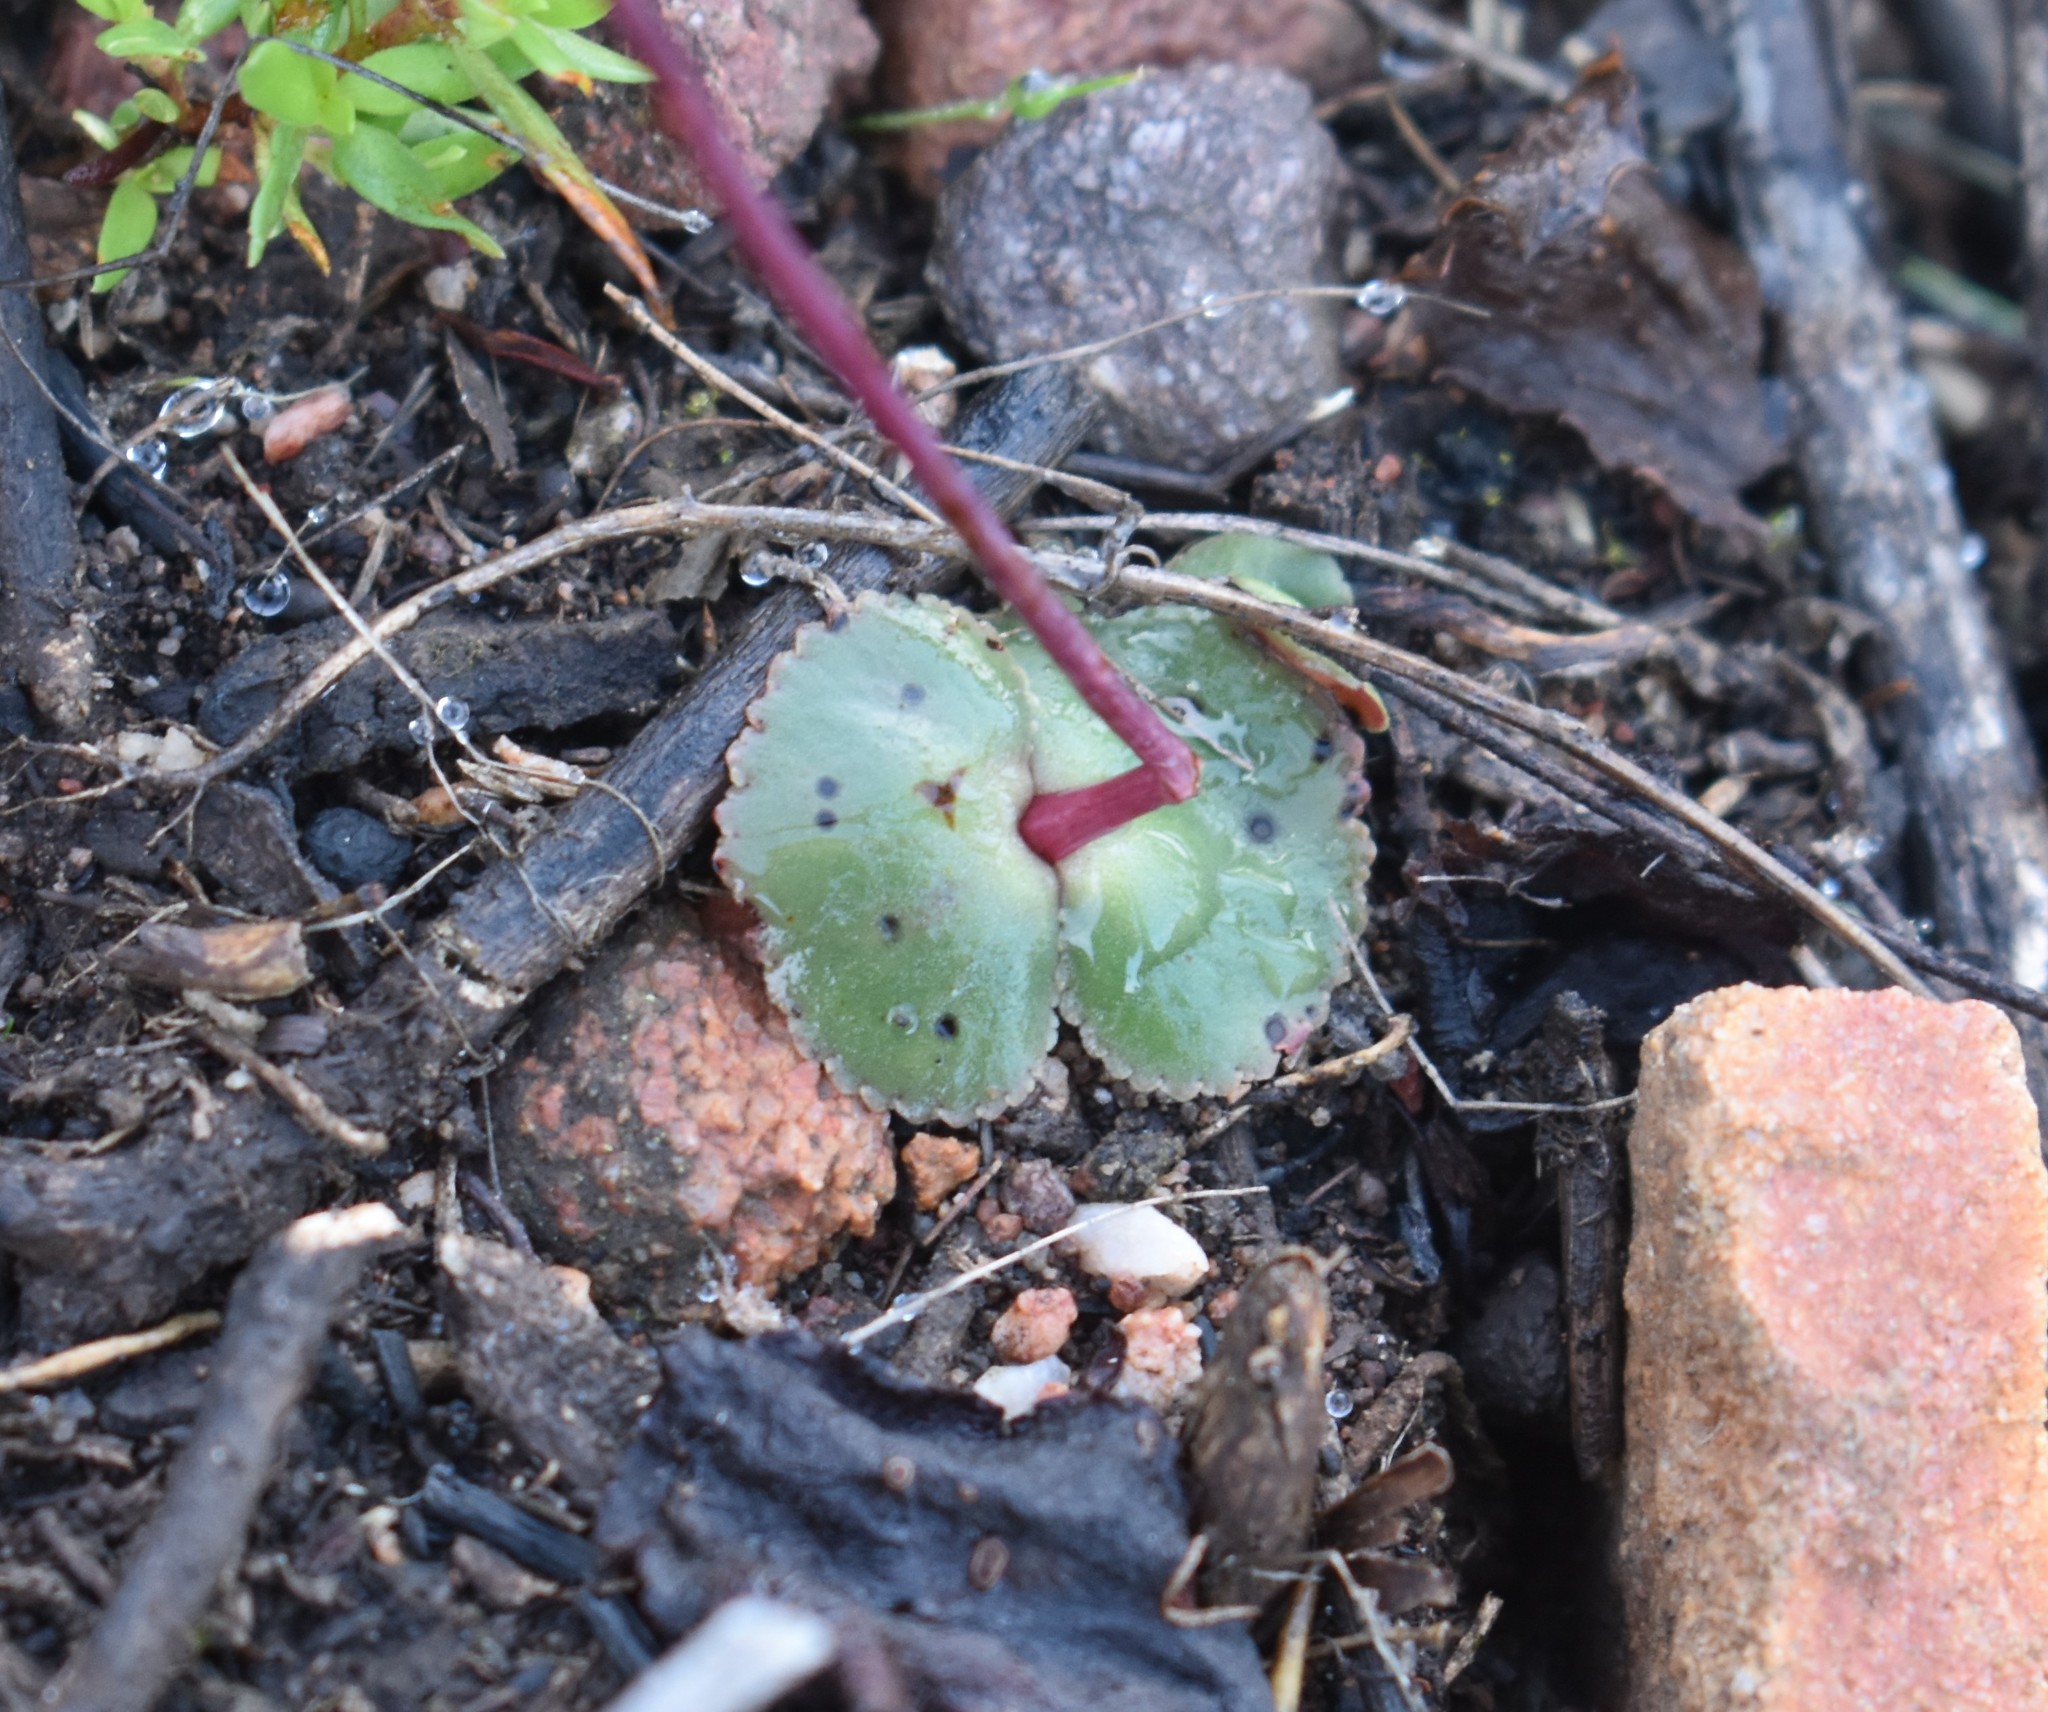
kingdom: Plantae
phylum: Tracheophyta
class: Magnoliopsida
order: Saxifragales
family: Crassulaceae
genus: Crassula
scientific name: Crassula umbella
